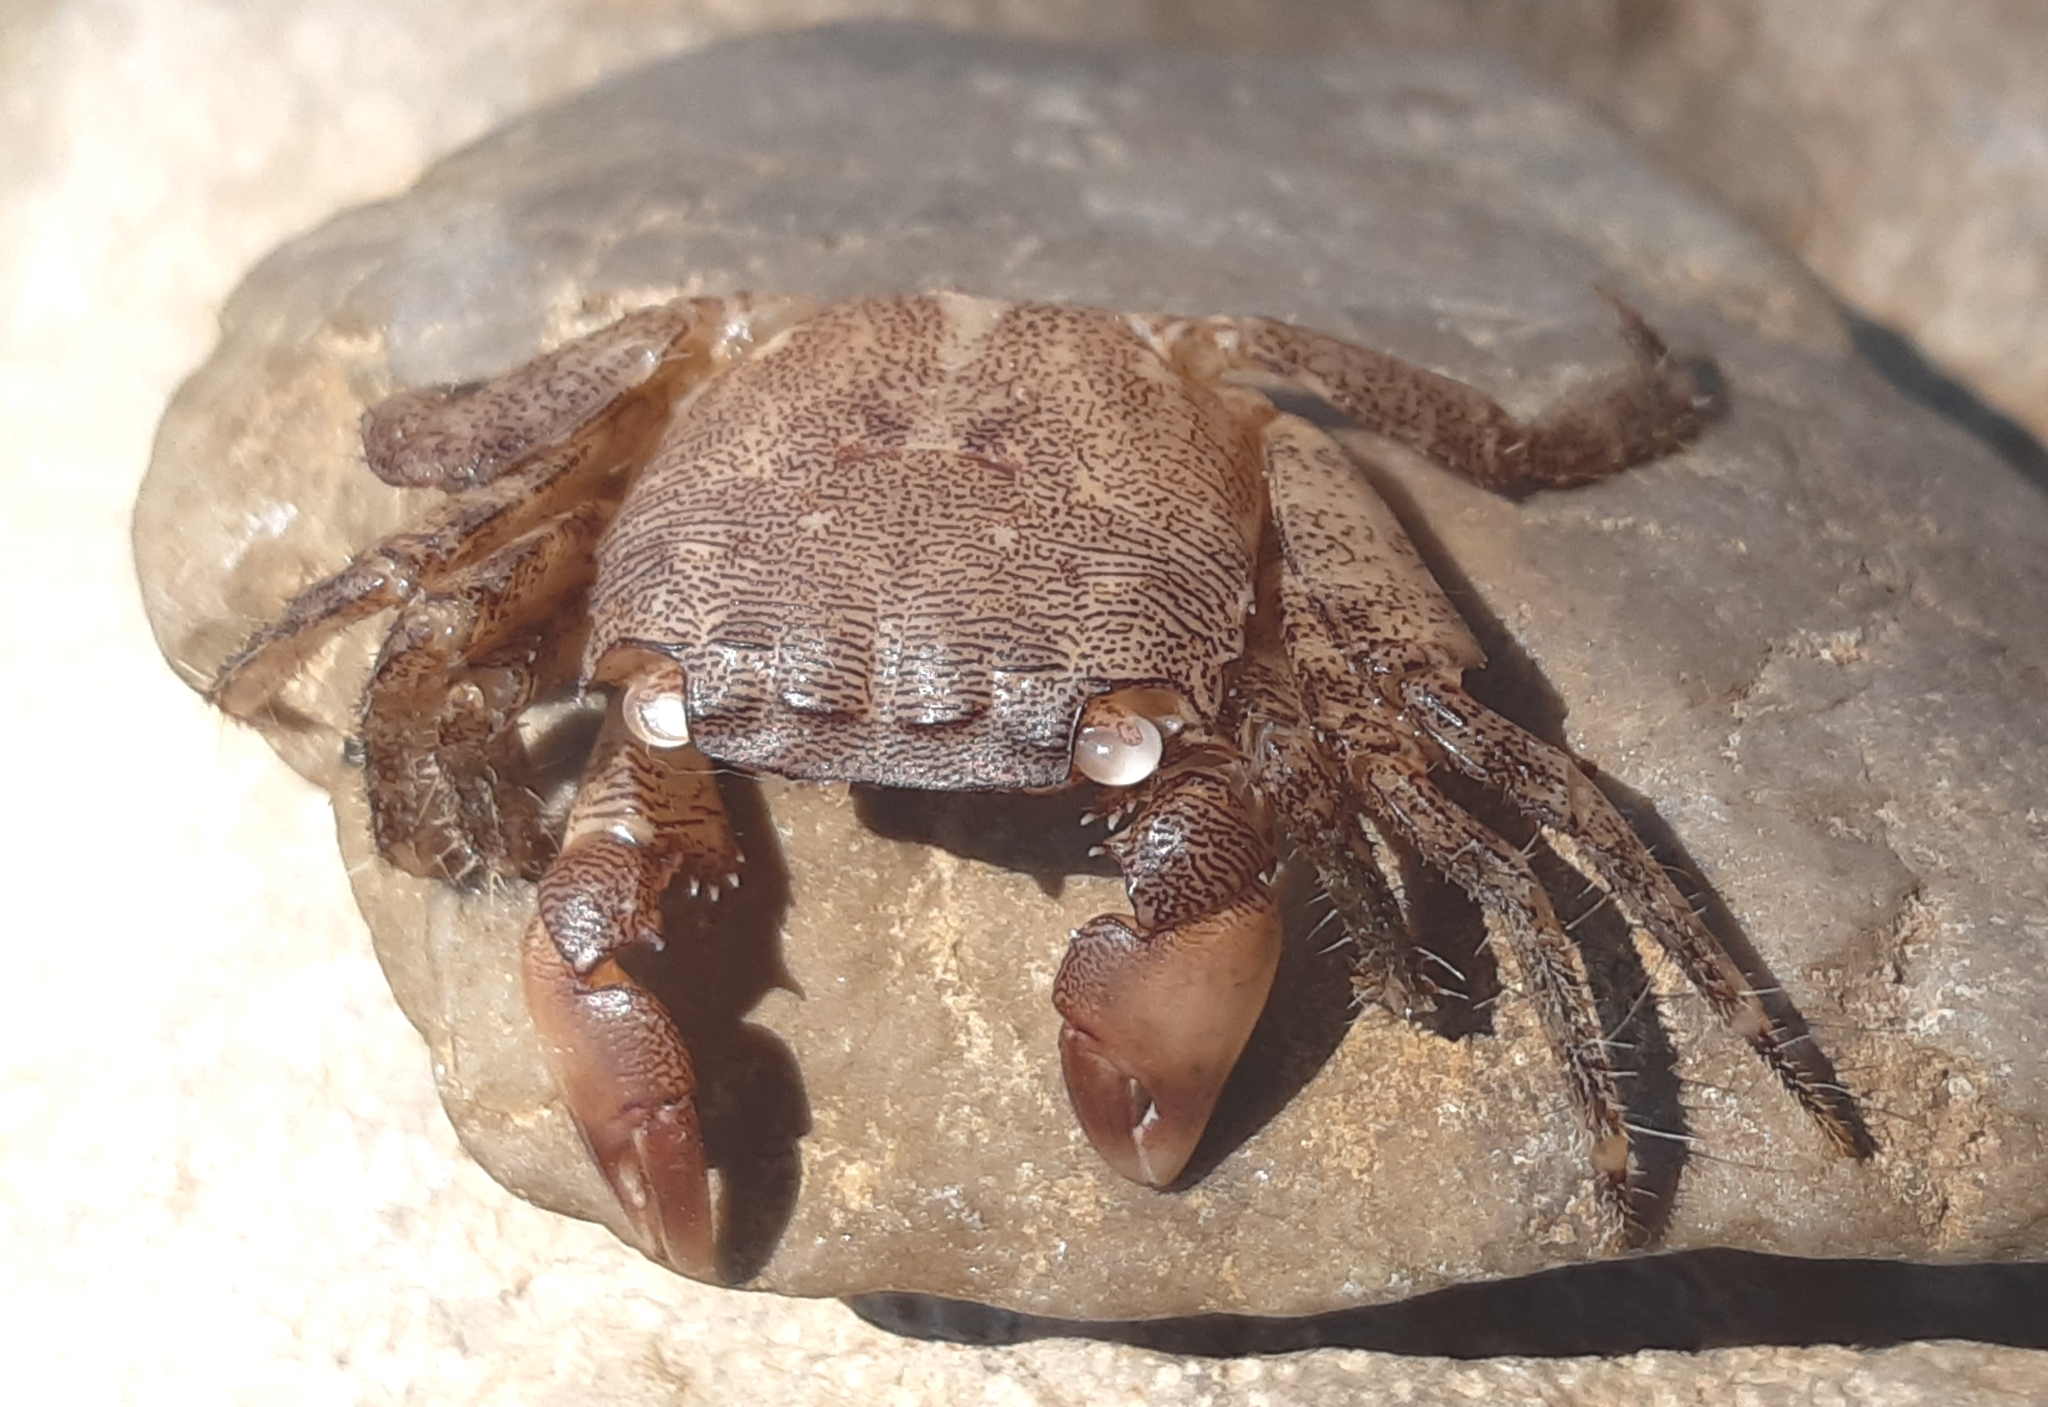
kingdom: Animalia
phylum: Arthropoda
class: Malacostraca
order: Decapoda
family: Grapsidae
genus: Pachygrapsus
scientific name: Pachygrapsus marmoratus
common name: Marbled rock crab
